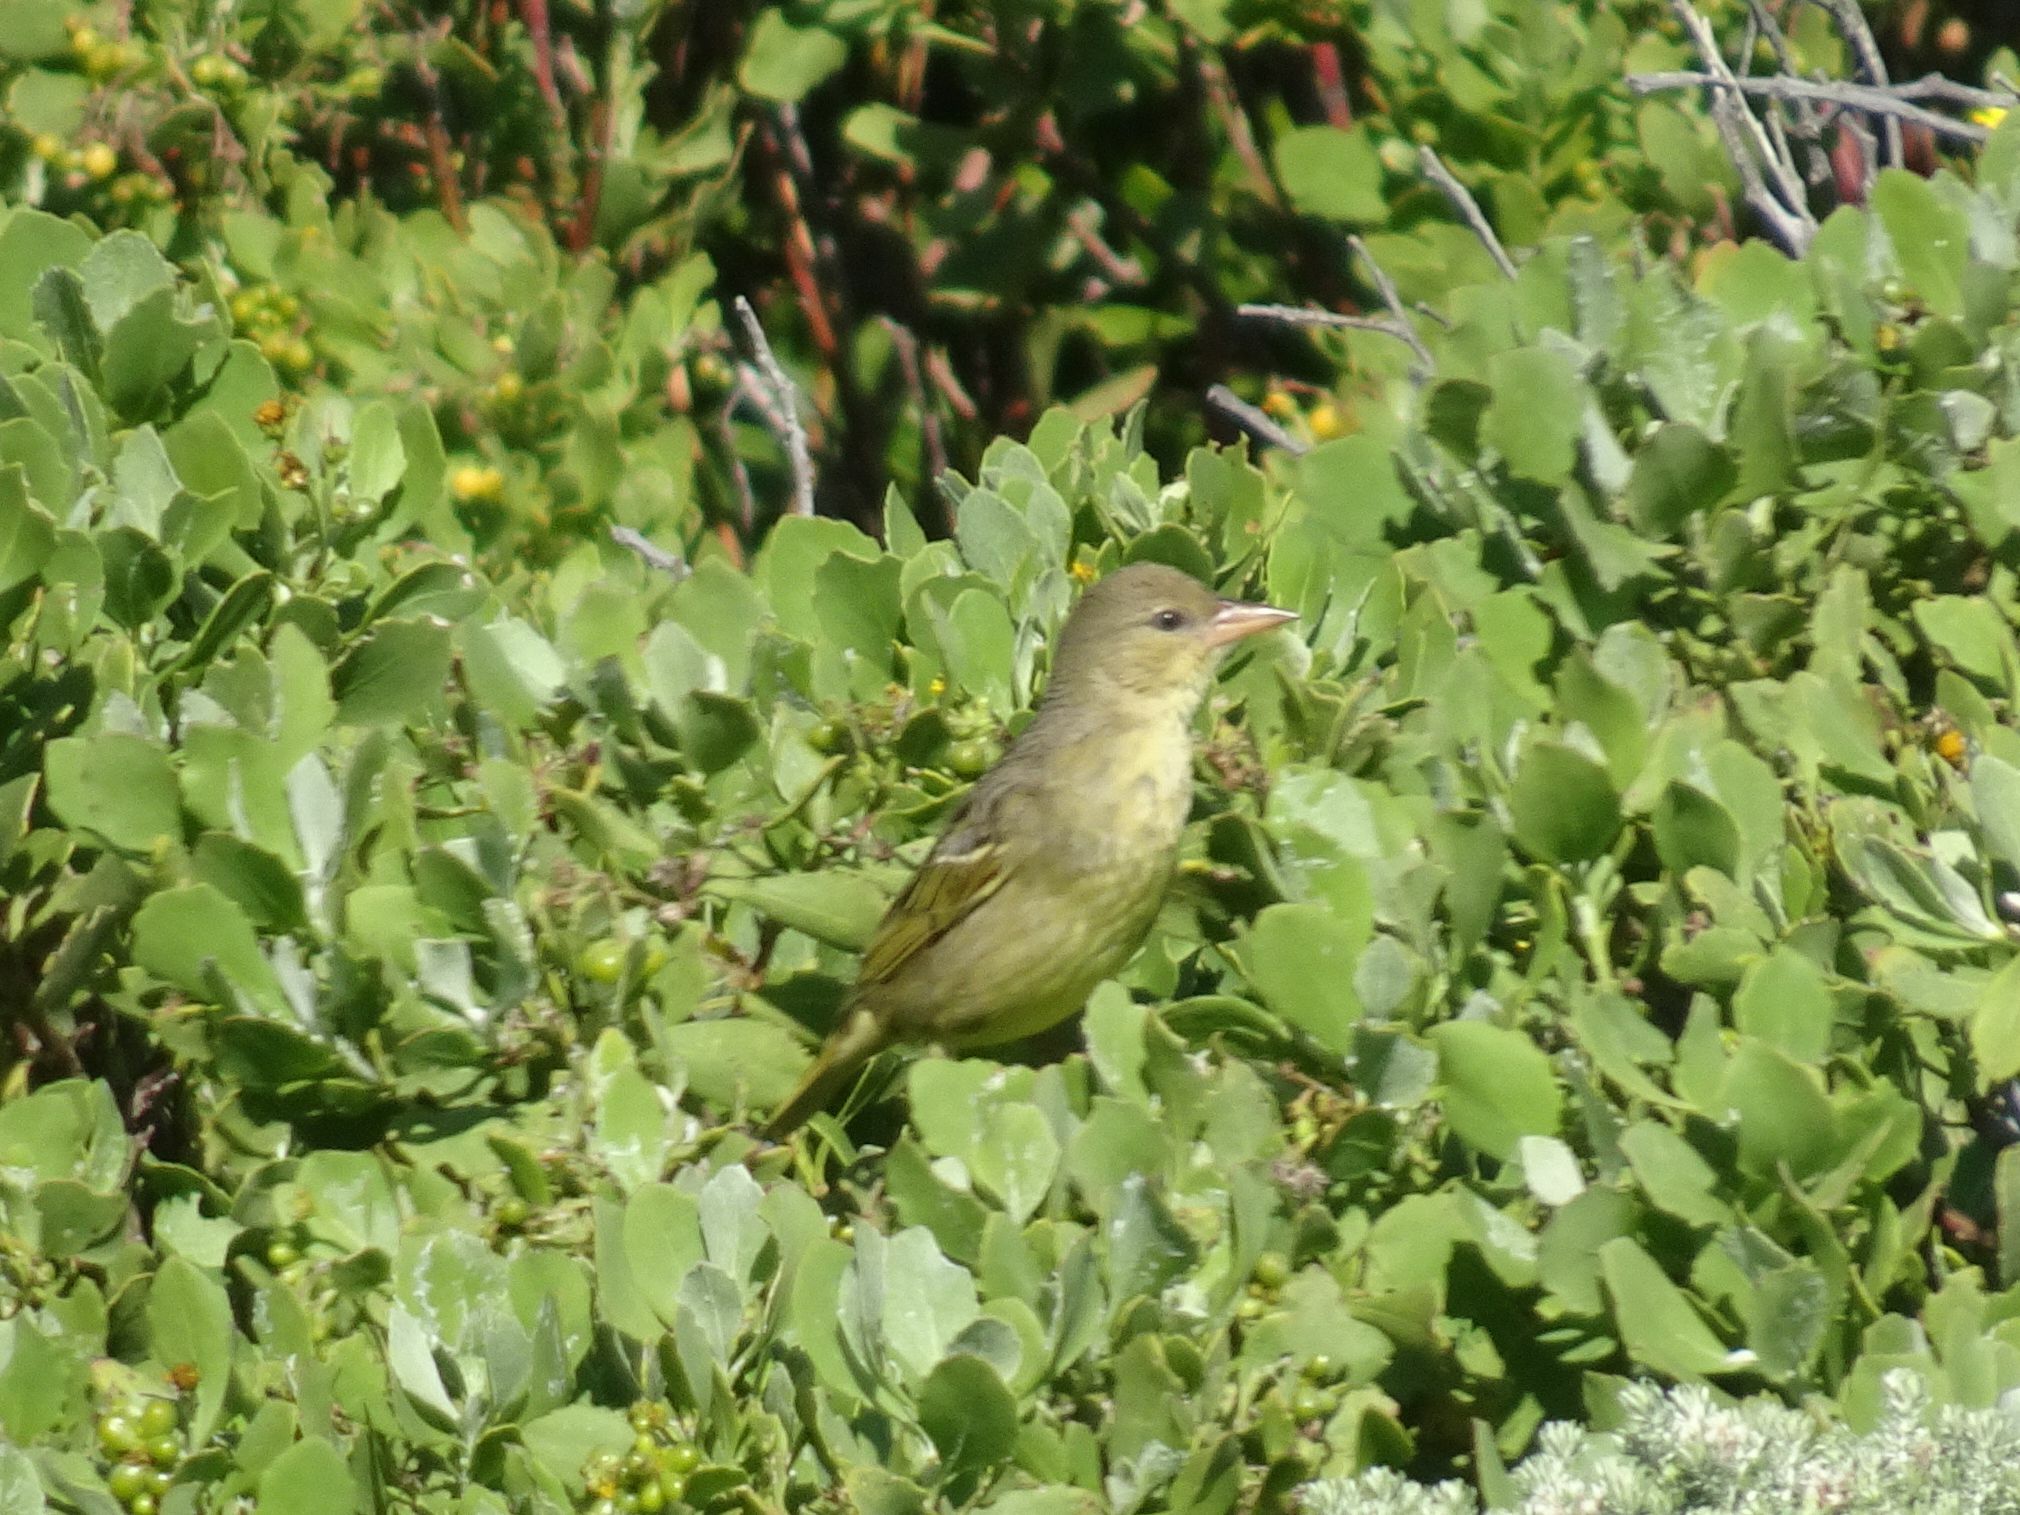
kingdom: Animalia
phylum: Chordata
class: Aves
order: Passeriformes
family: Ploceidae
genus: Ploceus
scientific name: Ploceus capensis
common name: Cape weaver
